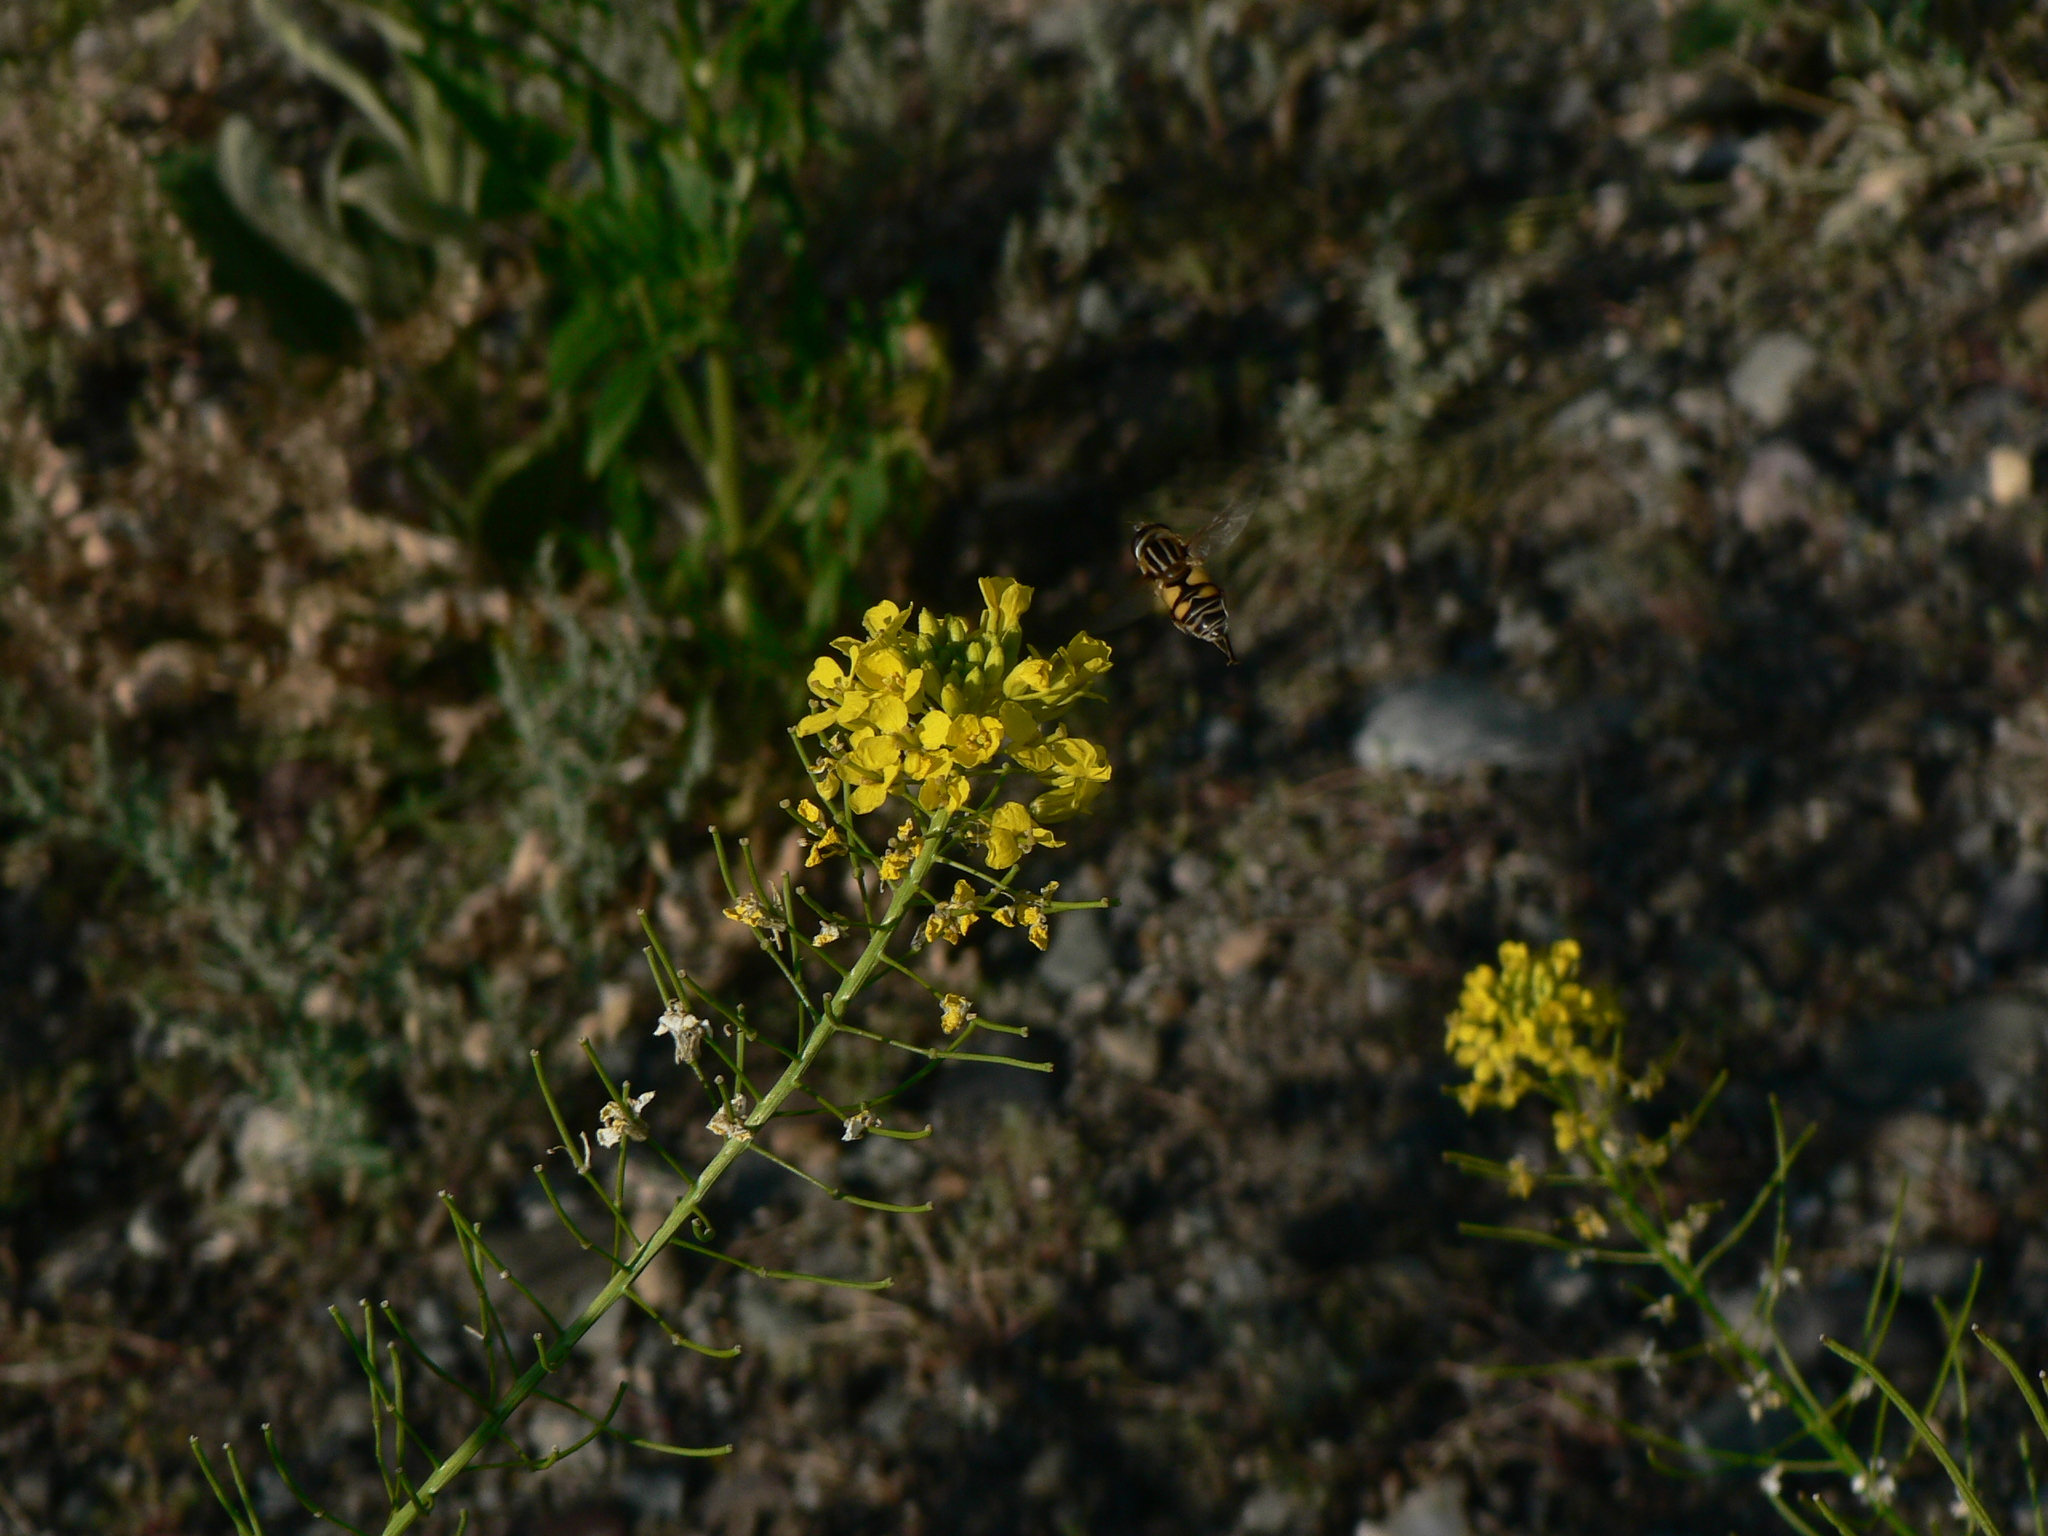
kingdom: Animalia
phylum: Arthropoda
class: Insecta
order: Diptera
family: Syrphidae
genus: Helophilus
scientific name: Helophilus fasciatus
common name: Narrow-headed marsh fly
